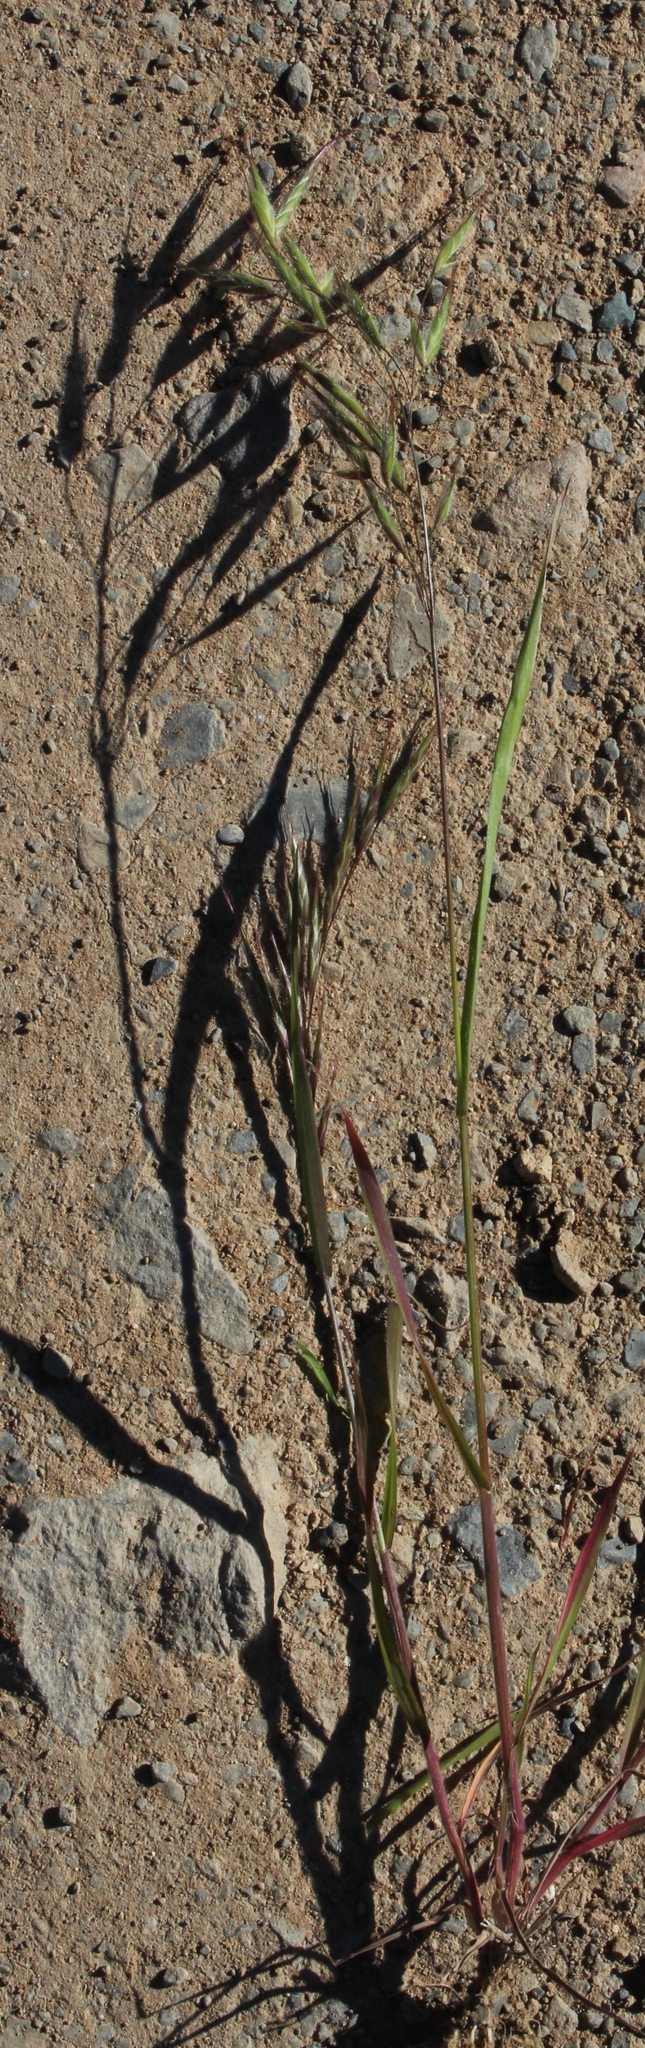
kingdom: Plantae
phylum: Tracheophyta
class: Liliopsida
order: Poales
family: Poaceae
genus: Bromus
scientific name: Bromus pectinatus
